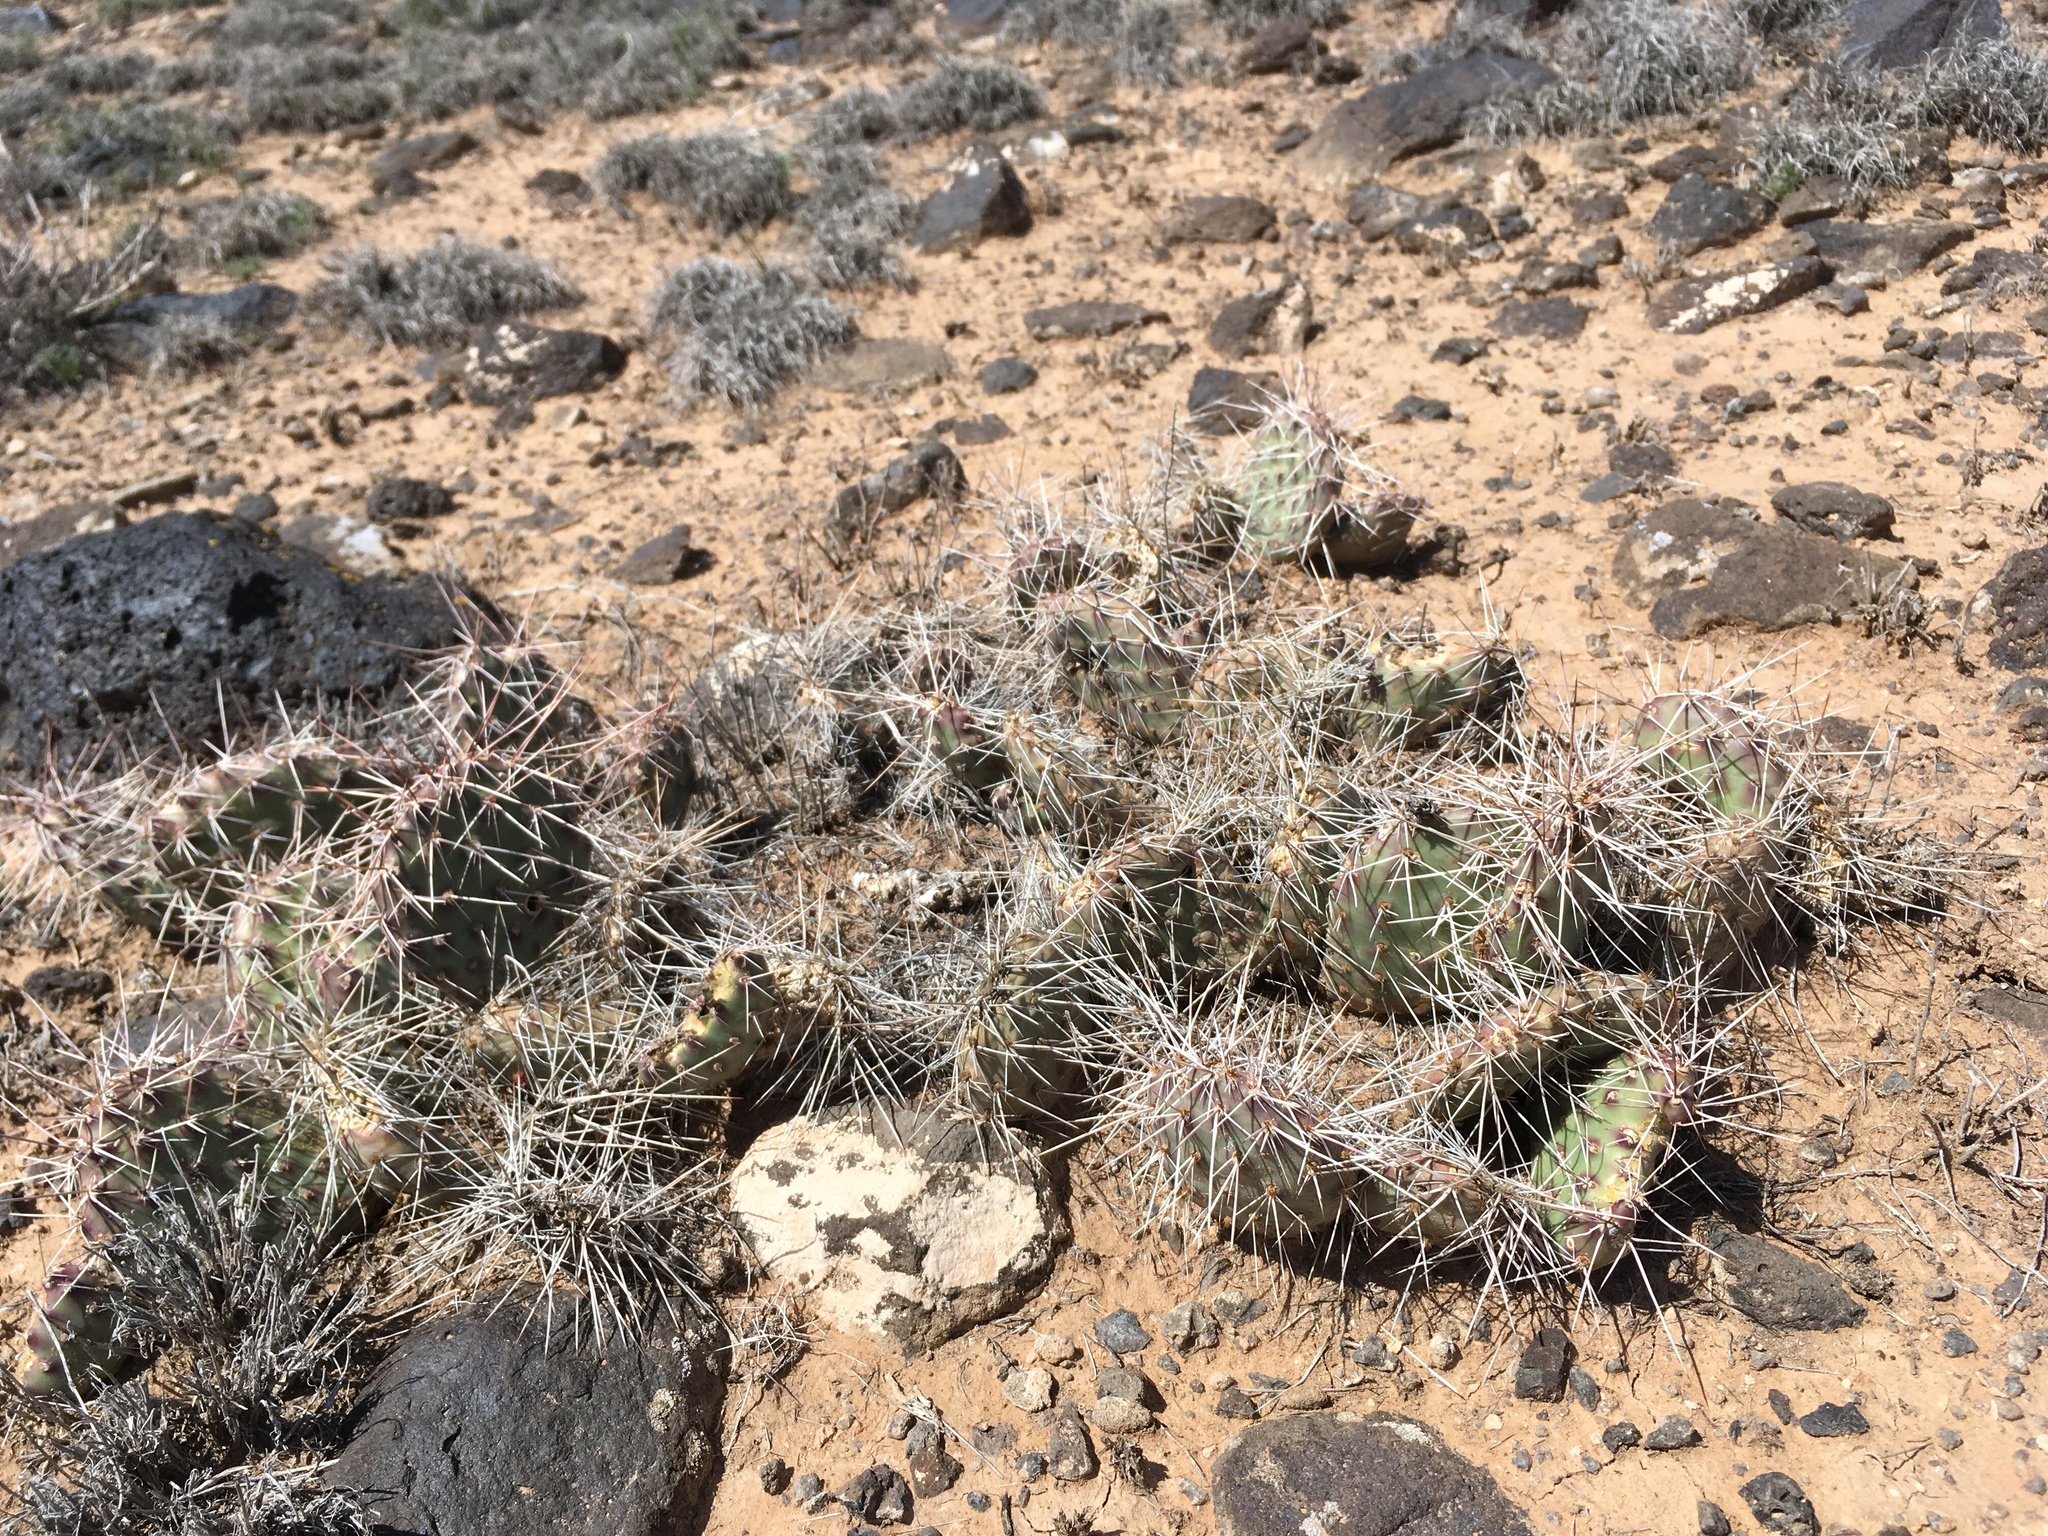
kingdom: Plantae
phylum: Tracheophyta
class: Magnoliopsida
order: Caryophyllales
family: Cactaceae
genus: Opuntia
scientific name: Opuntia polyacantha
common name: Plains prickly-pear
